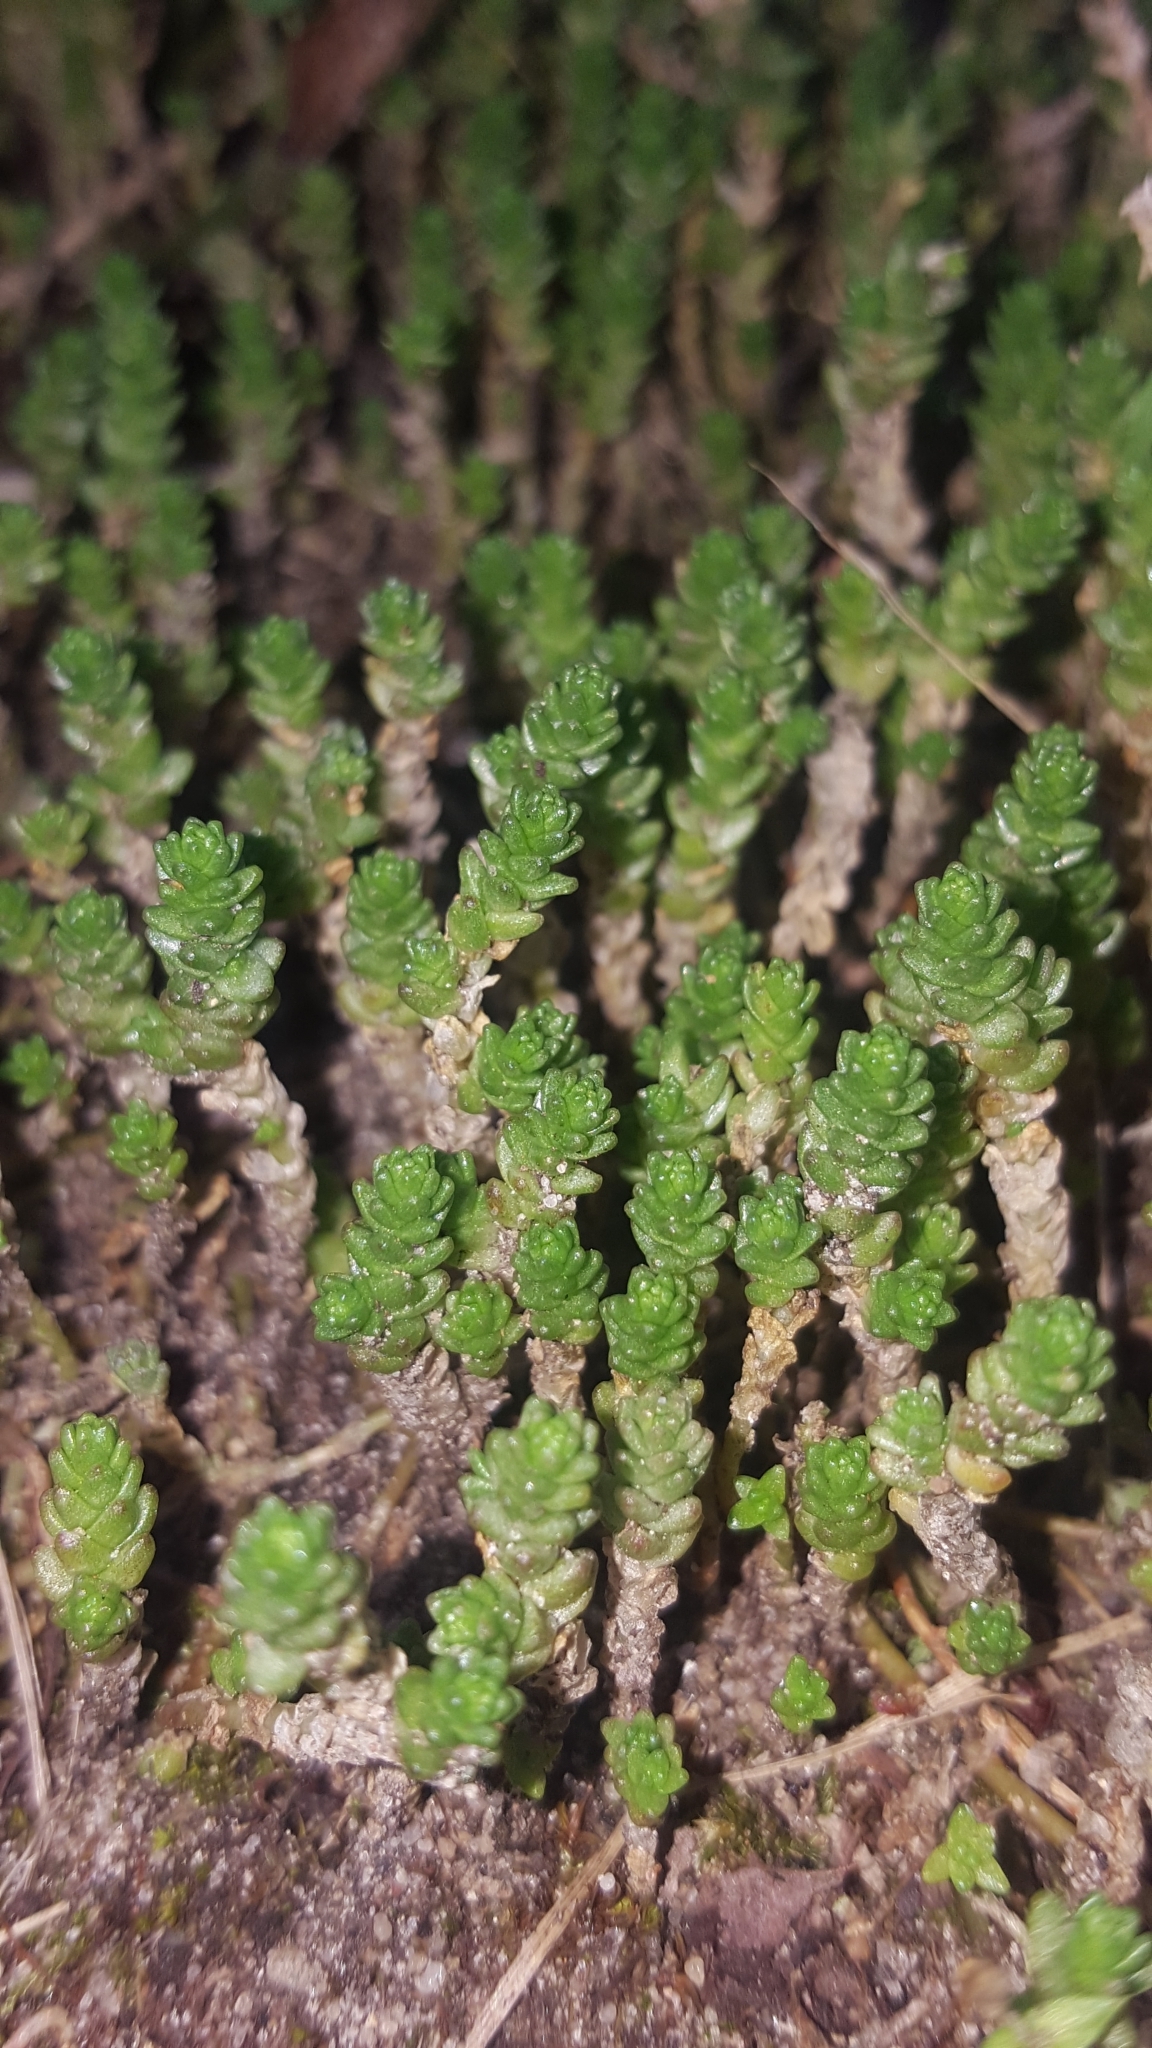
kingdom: Plantae
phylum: Tracheophyta
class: Magnoliopsida
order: Saxifragales
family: Crassulaceae
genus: Sedum
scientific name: Sedum acre
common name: Biting stonecrop
